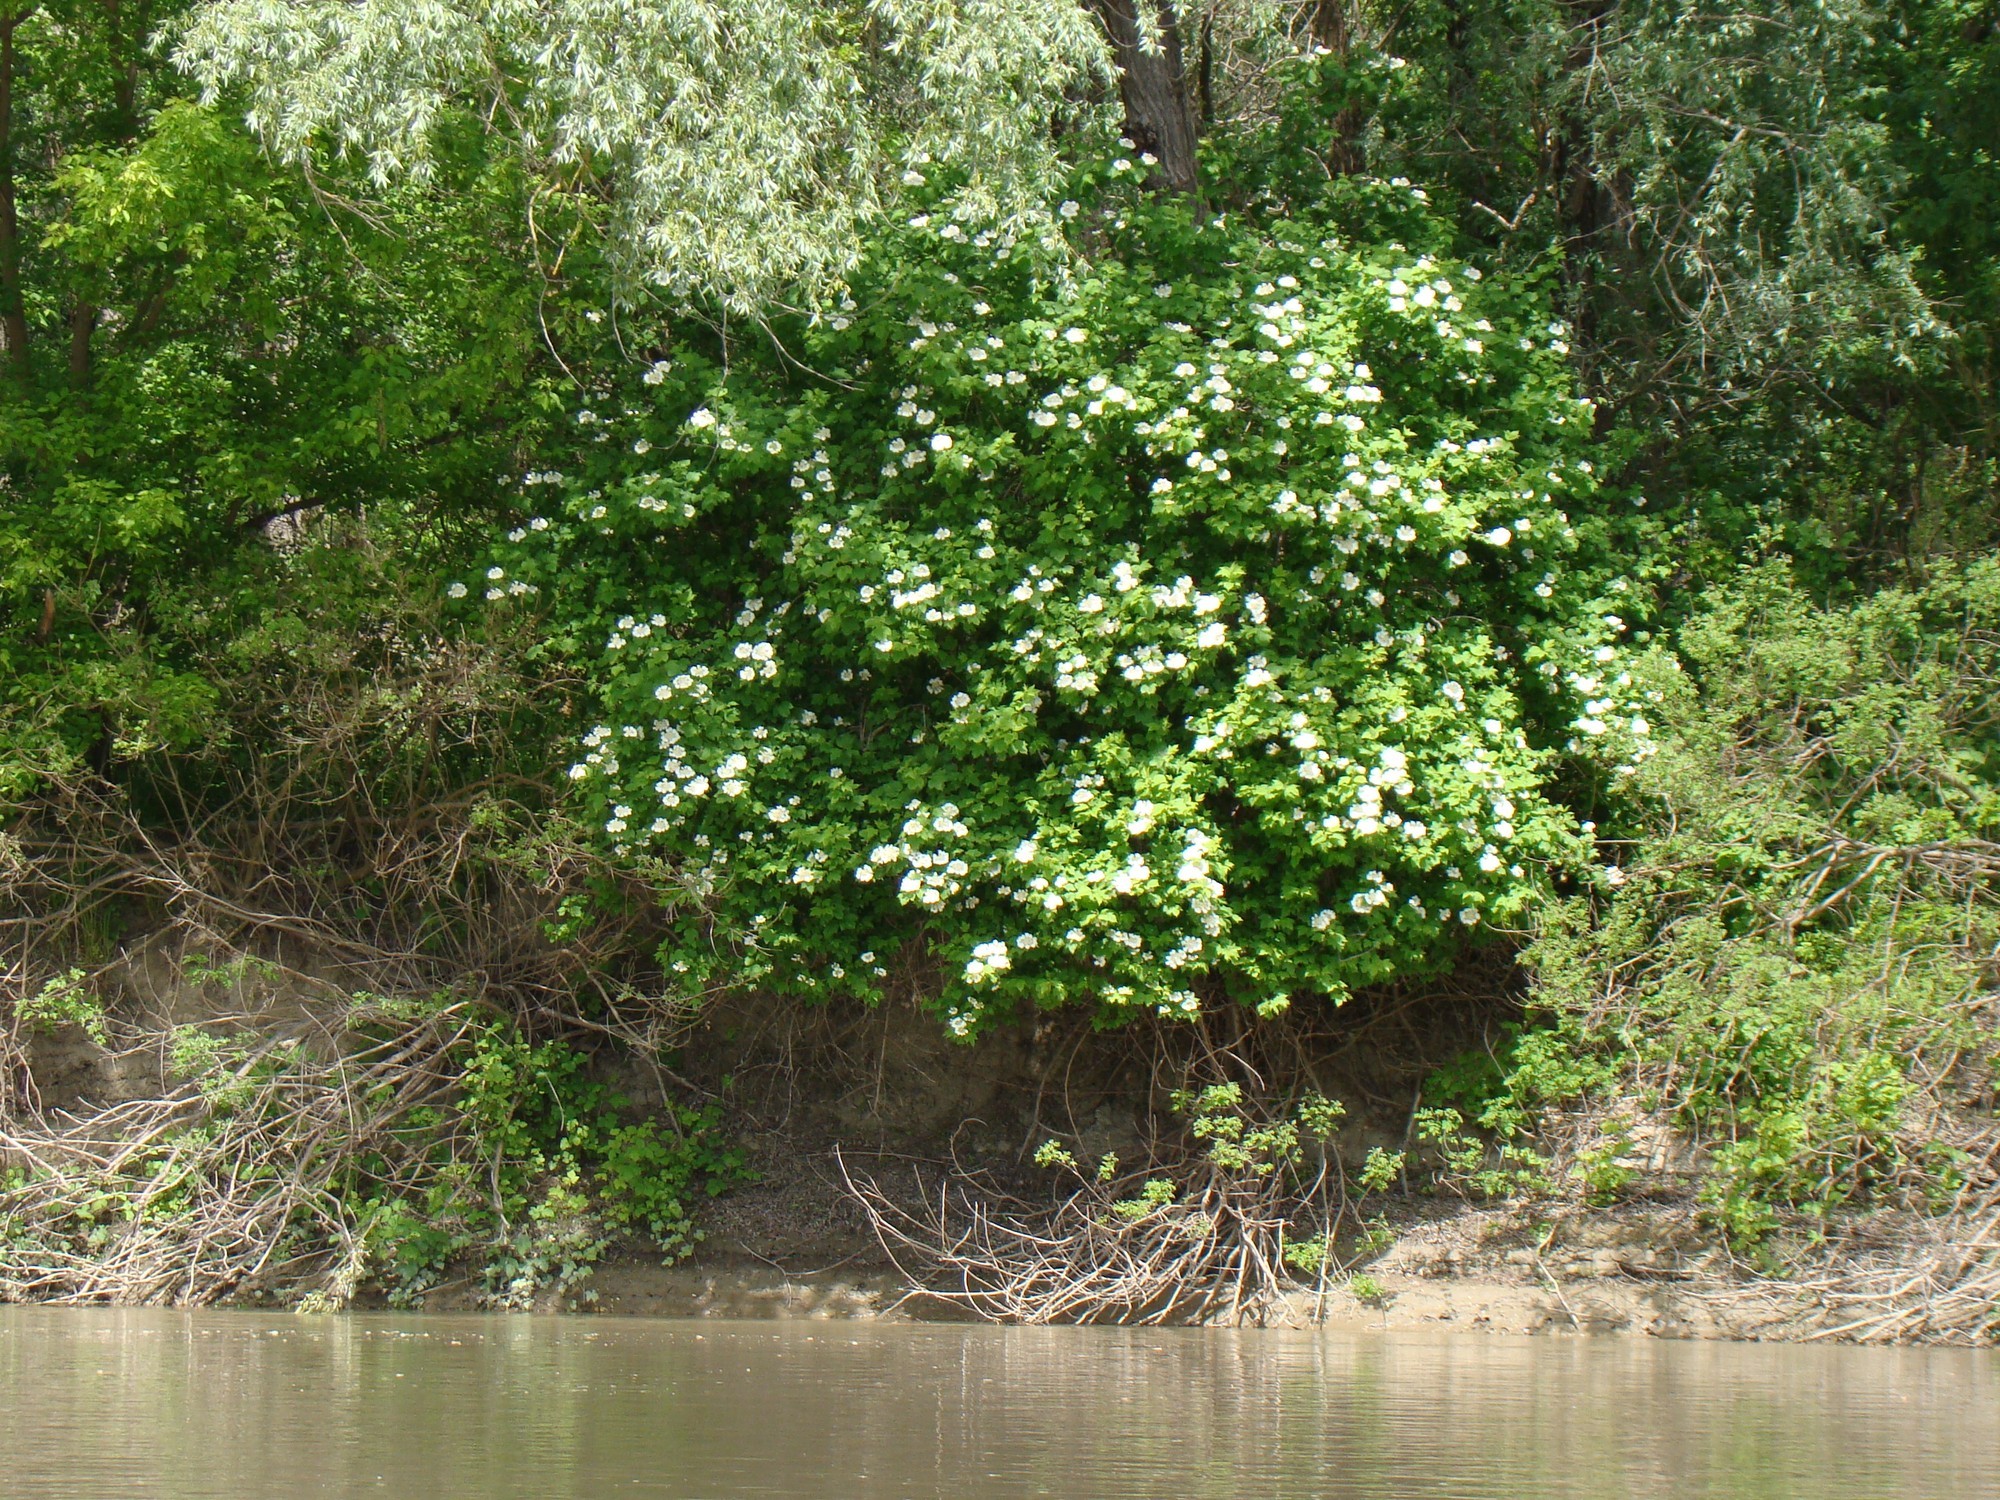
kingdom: Plantae
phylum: Tracheophyta
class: Magnoliopsida
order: Dipsacales
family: Viburnaceae
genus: Viburnum
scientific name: Viburnum opulus
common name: Guelder-rose
